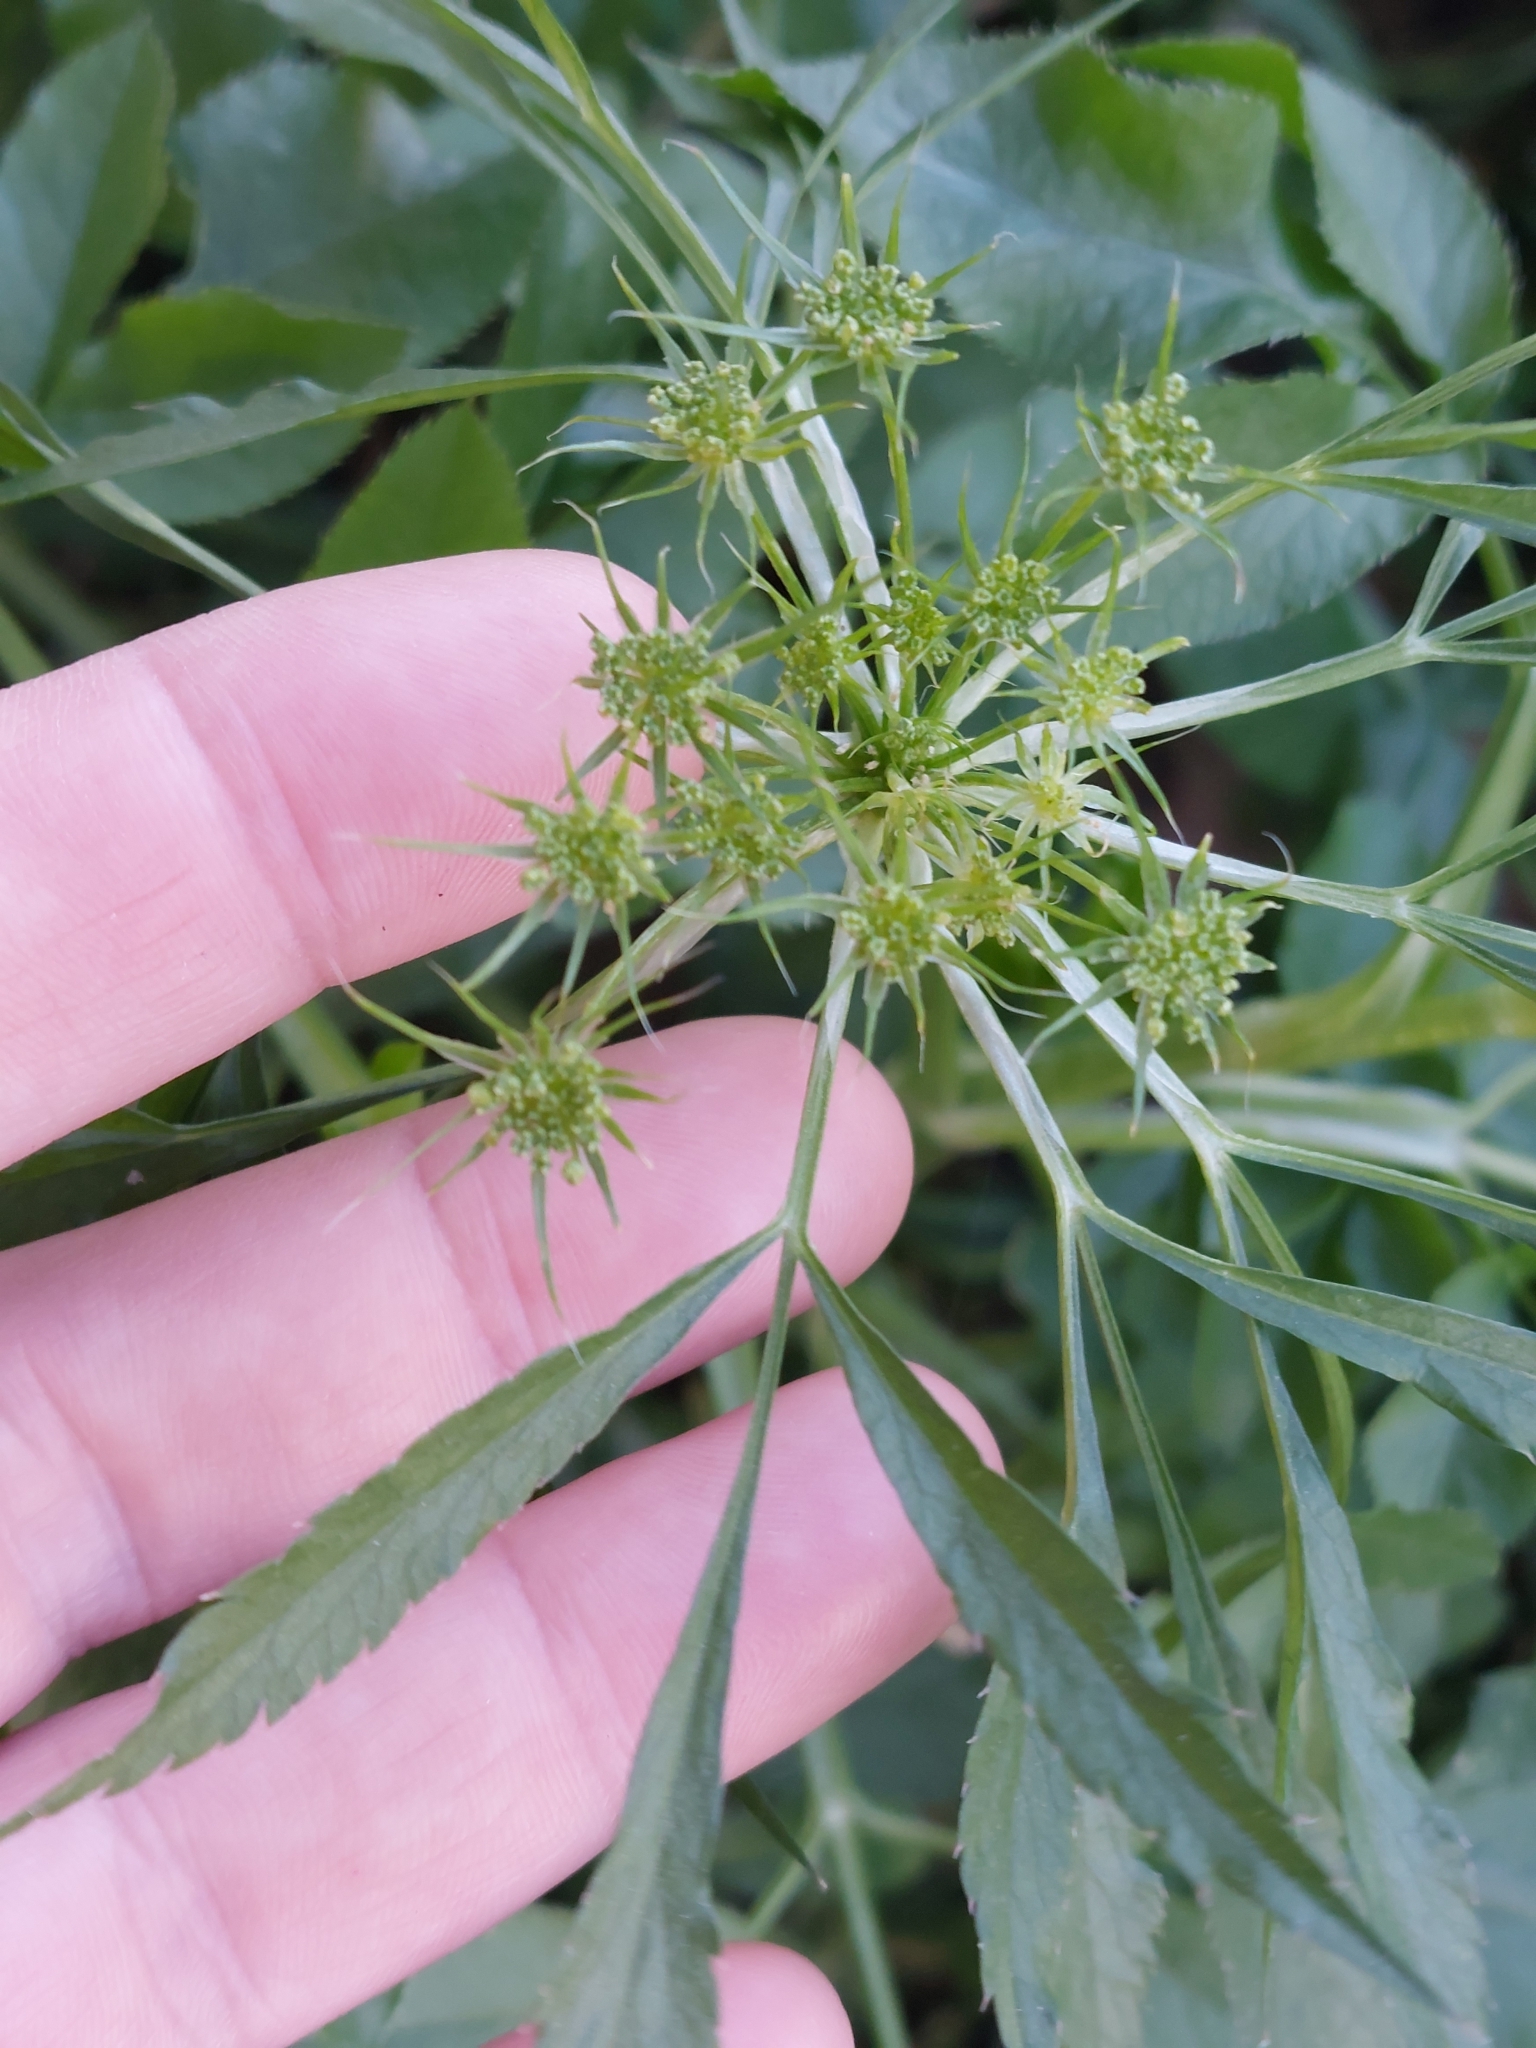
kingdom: Plantae
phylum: Tracheophyta
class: Magnoliopsida
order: Apiales
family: Apiaceae
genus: Ammi
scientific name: Ammi majus
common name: Bullwort
